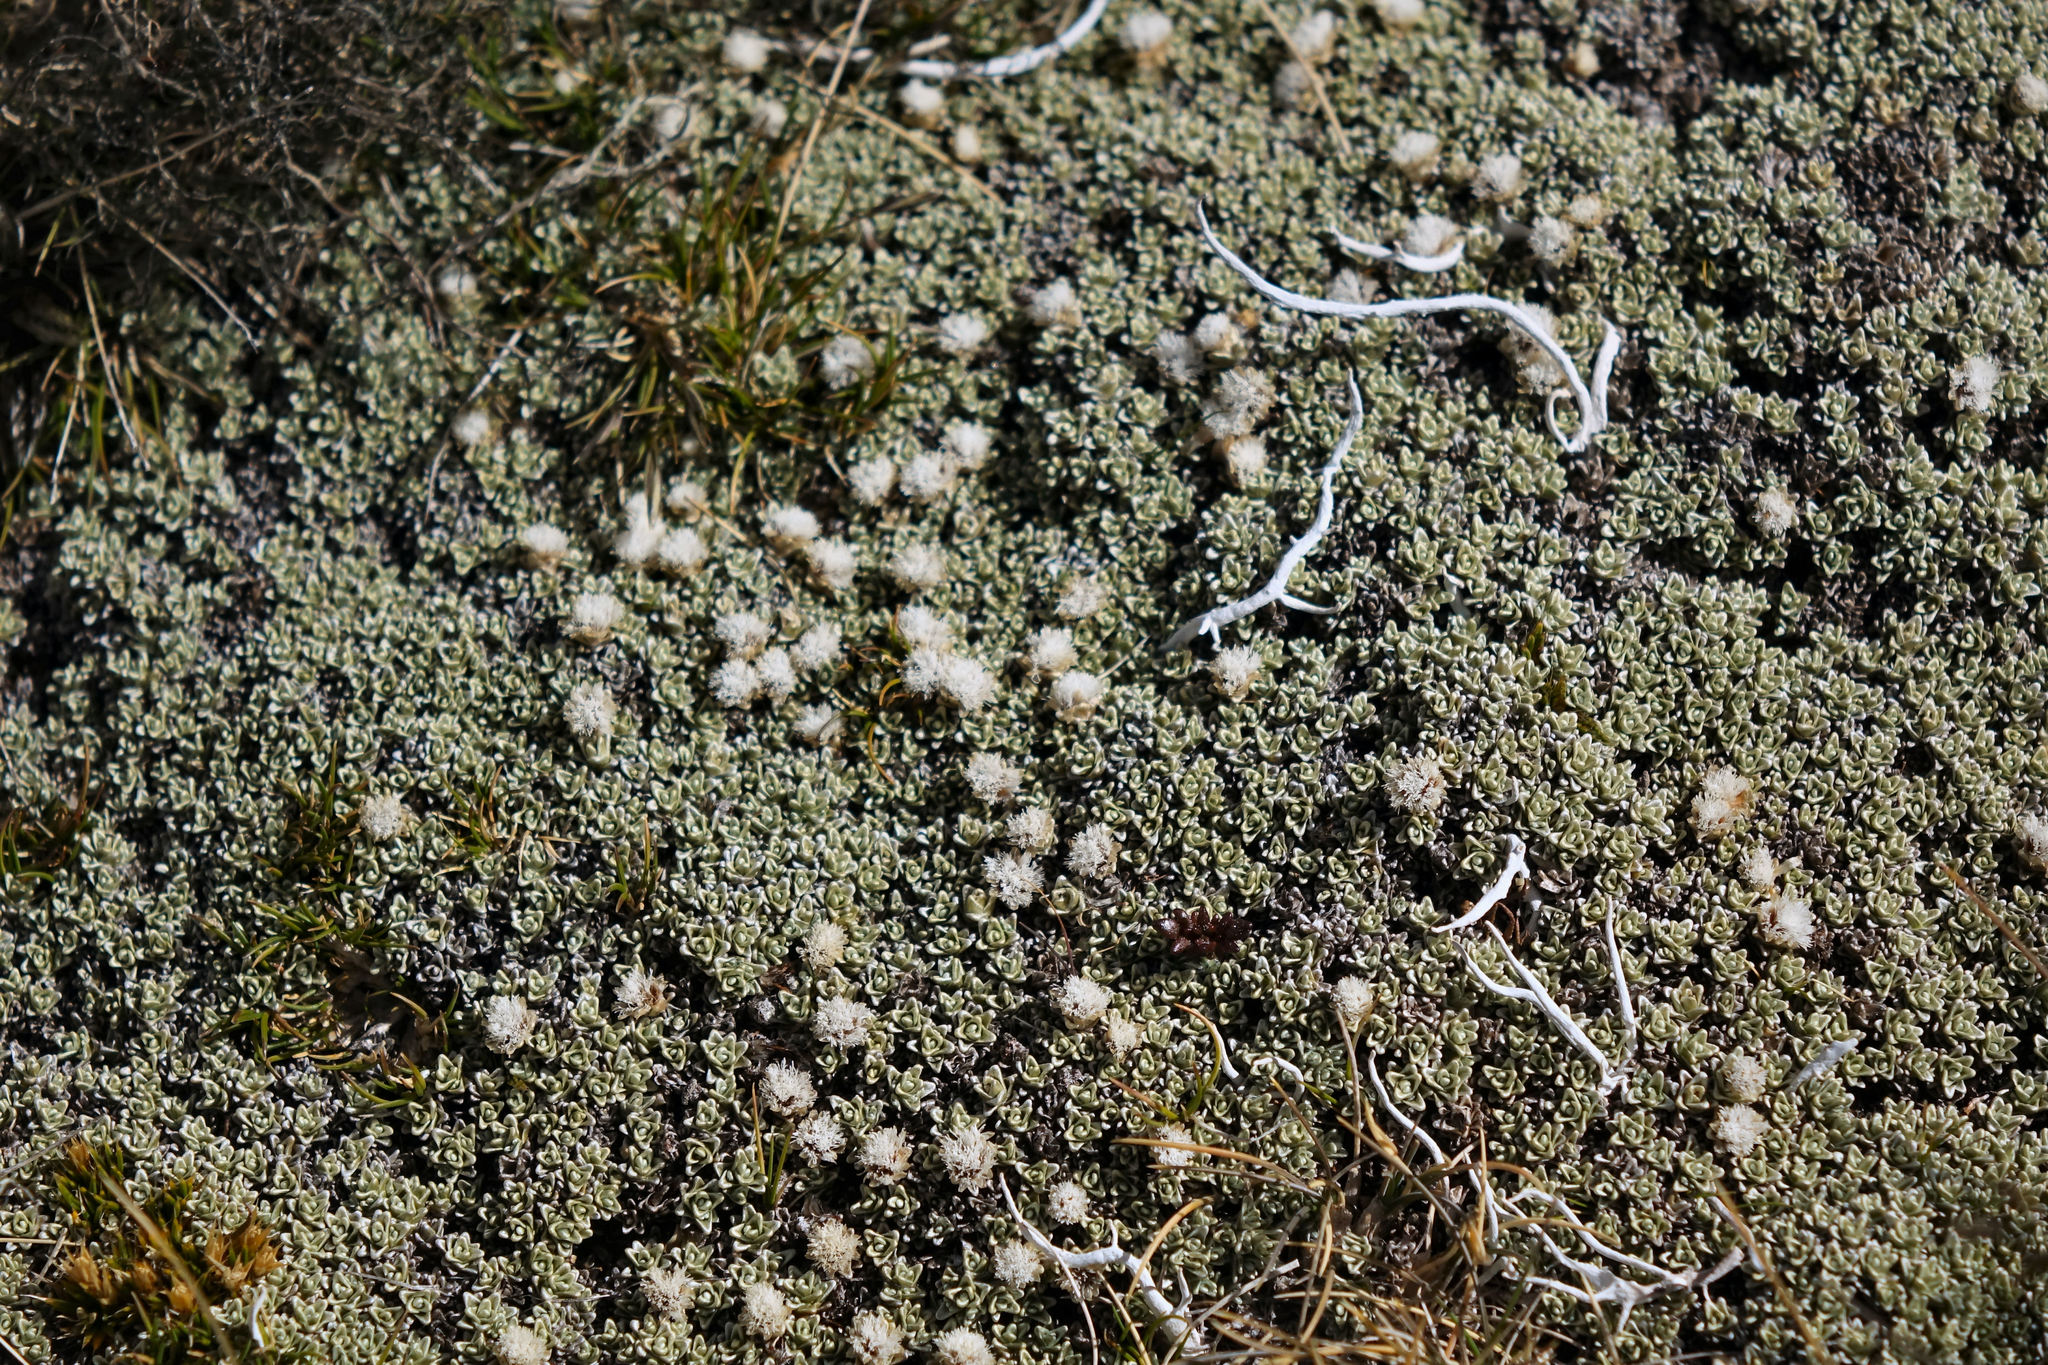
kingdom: Plantae
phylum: Tracheophyta
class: Magnoliopsida
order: Asterales
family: Asteraceae
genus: Raoulia
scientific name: Raoulia hectorii
